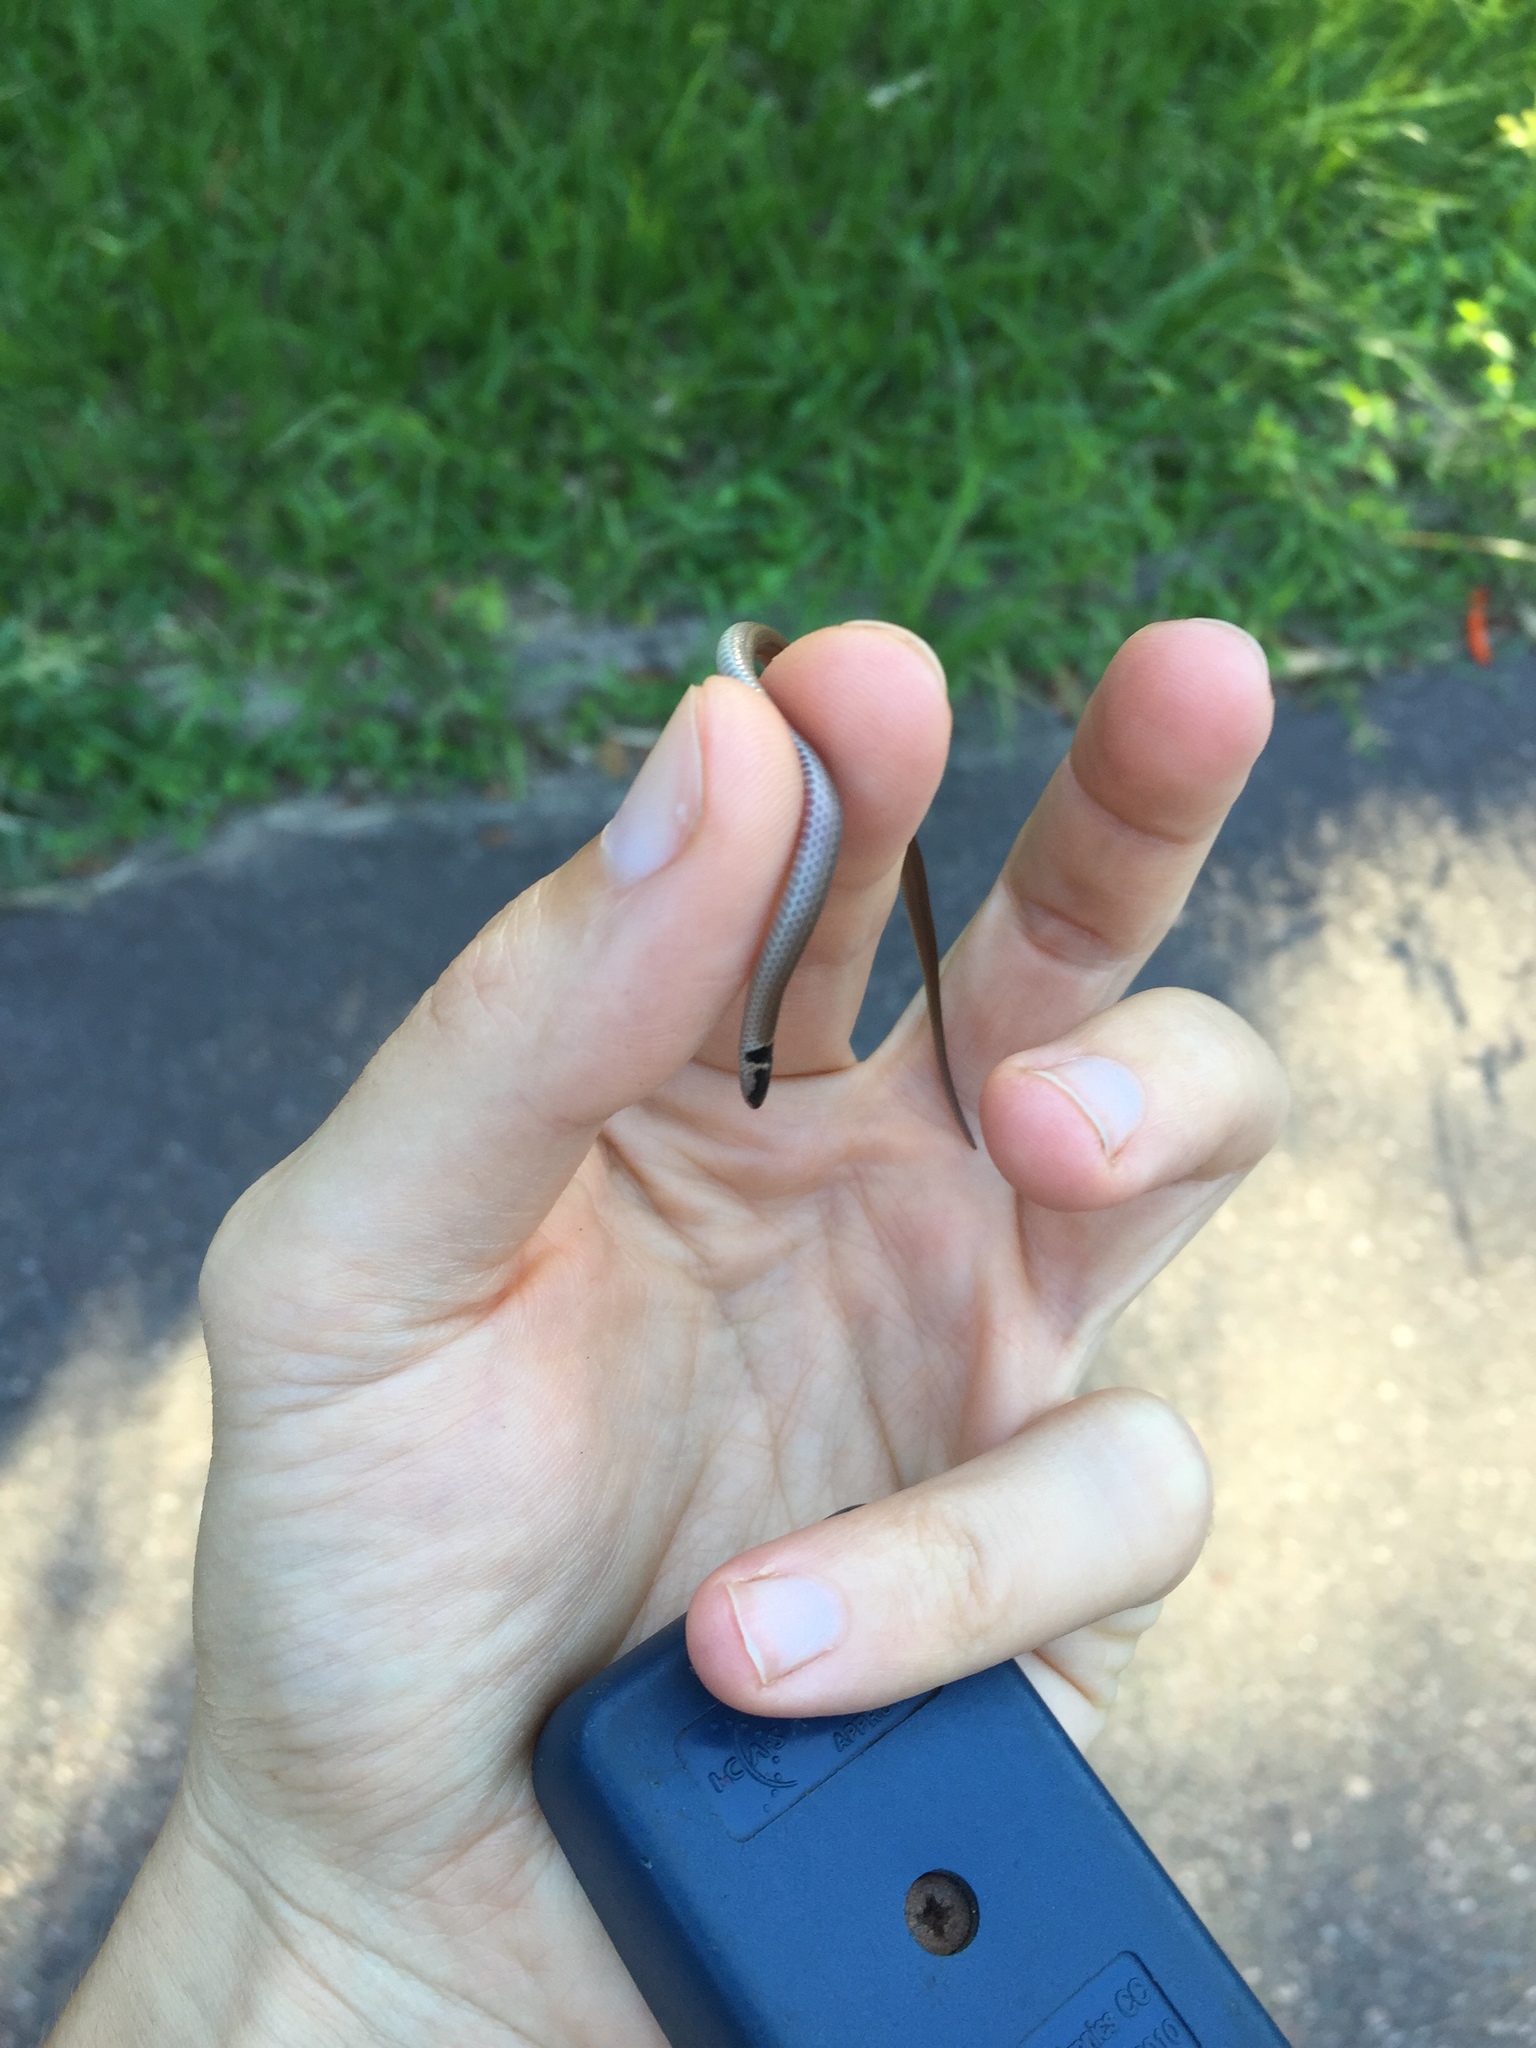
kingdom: Animalia
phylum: Chordata
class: Squamata
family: Atractaspididae
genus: Aparallactus
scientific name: Aparallactus capensis
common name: Cape centipede eater
